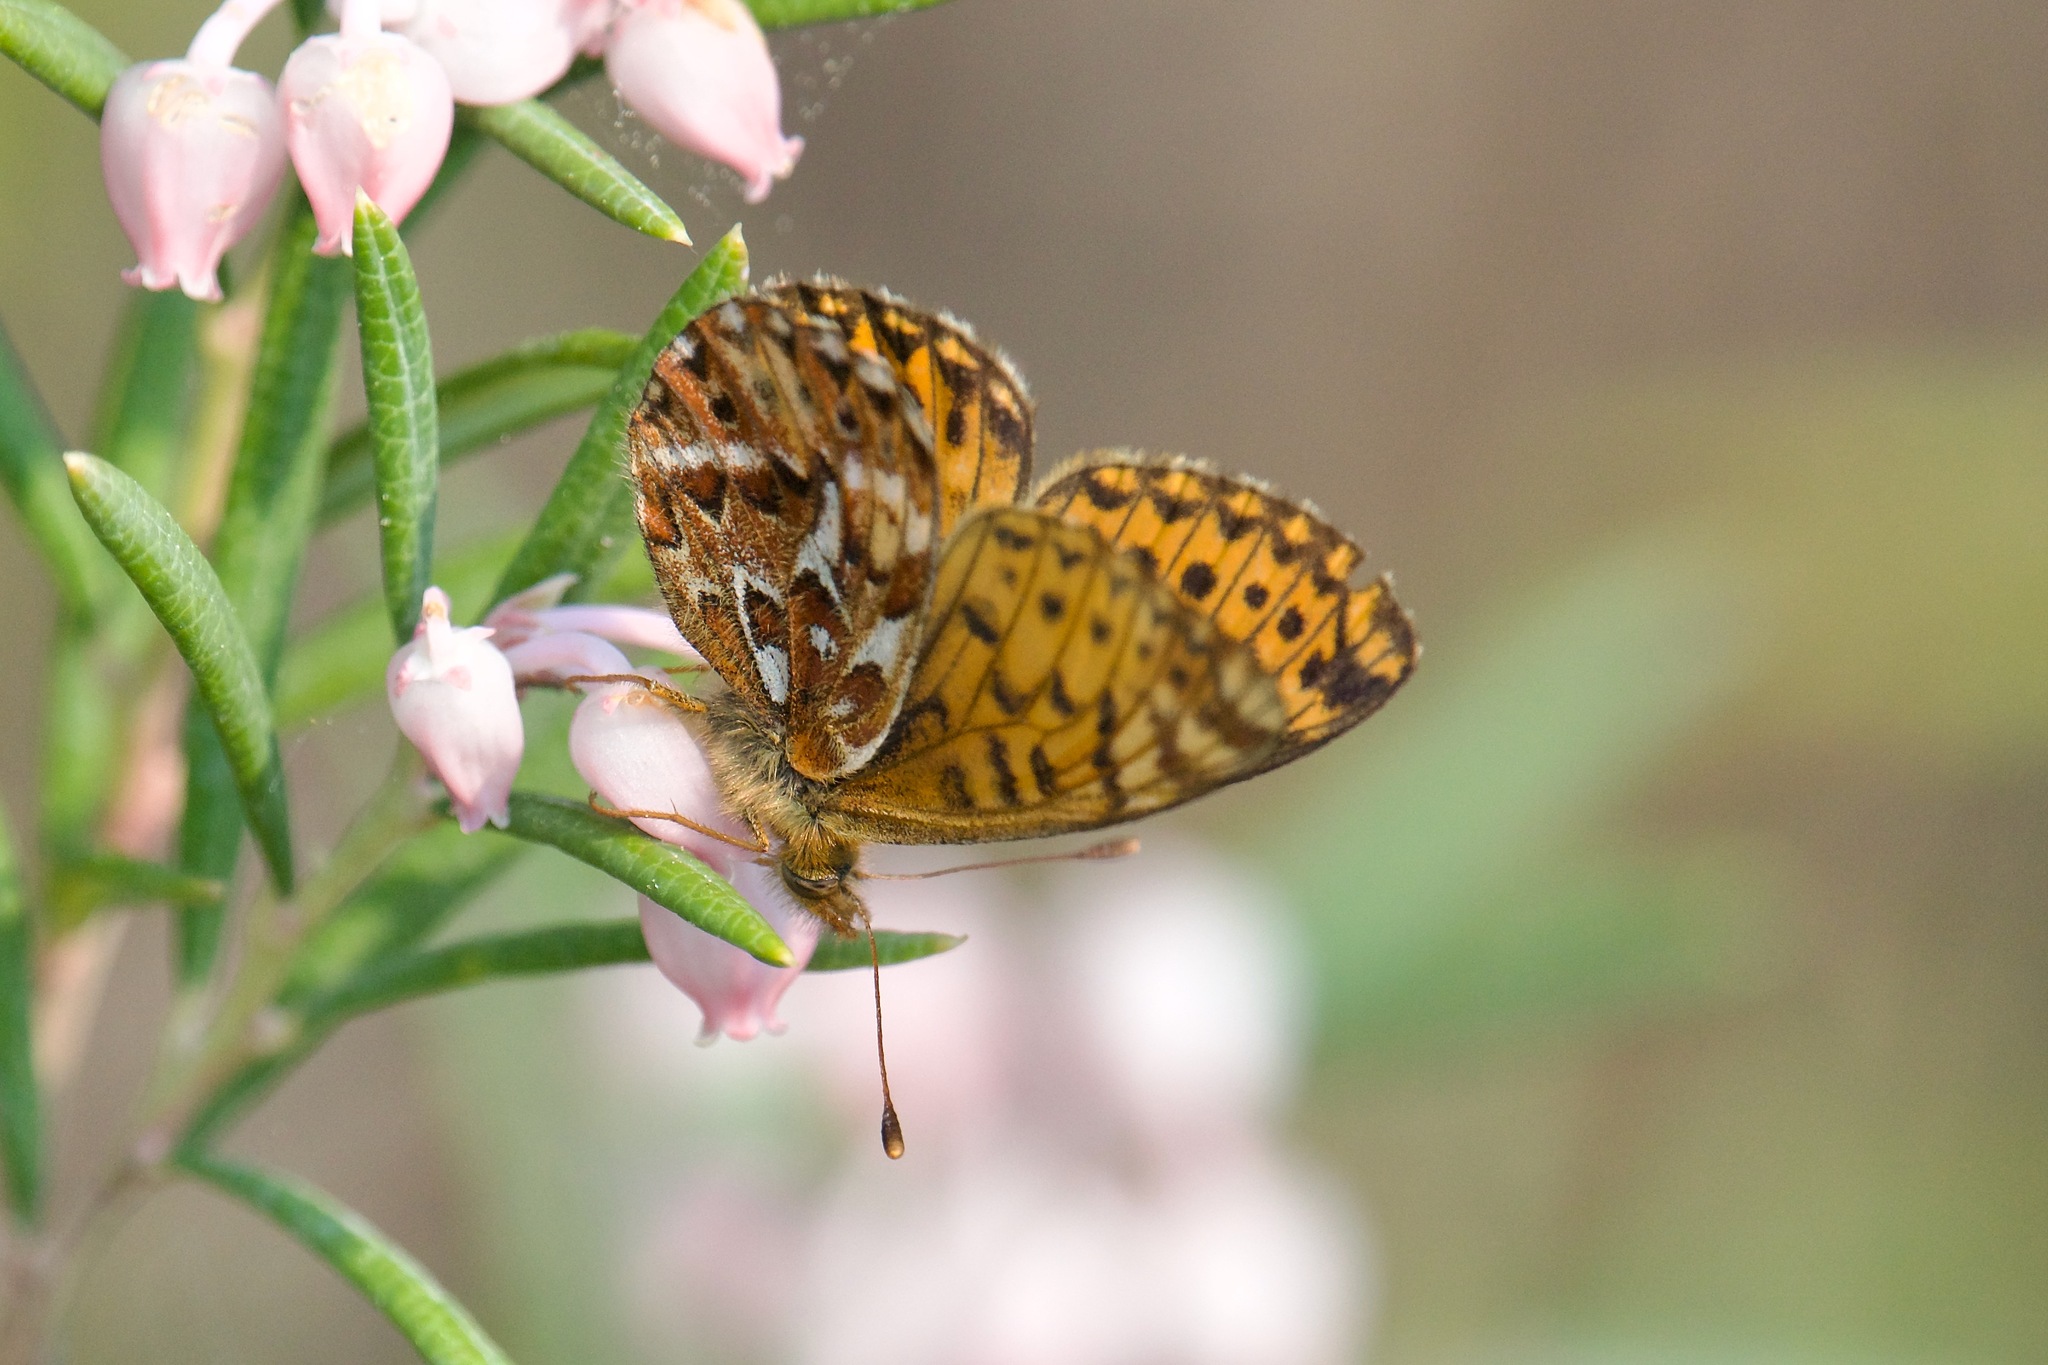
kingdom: Animalia
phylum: Arthropoda
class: Insecta
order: Lepidoptera
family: Nymphalidae
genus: Boloria
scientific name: Boloria freija
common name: Freija fritillary
